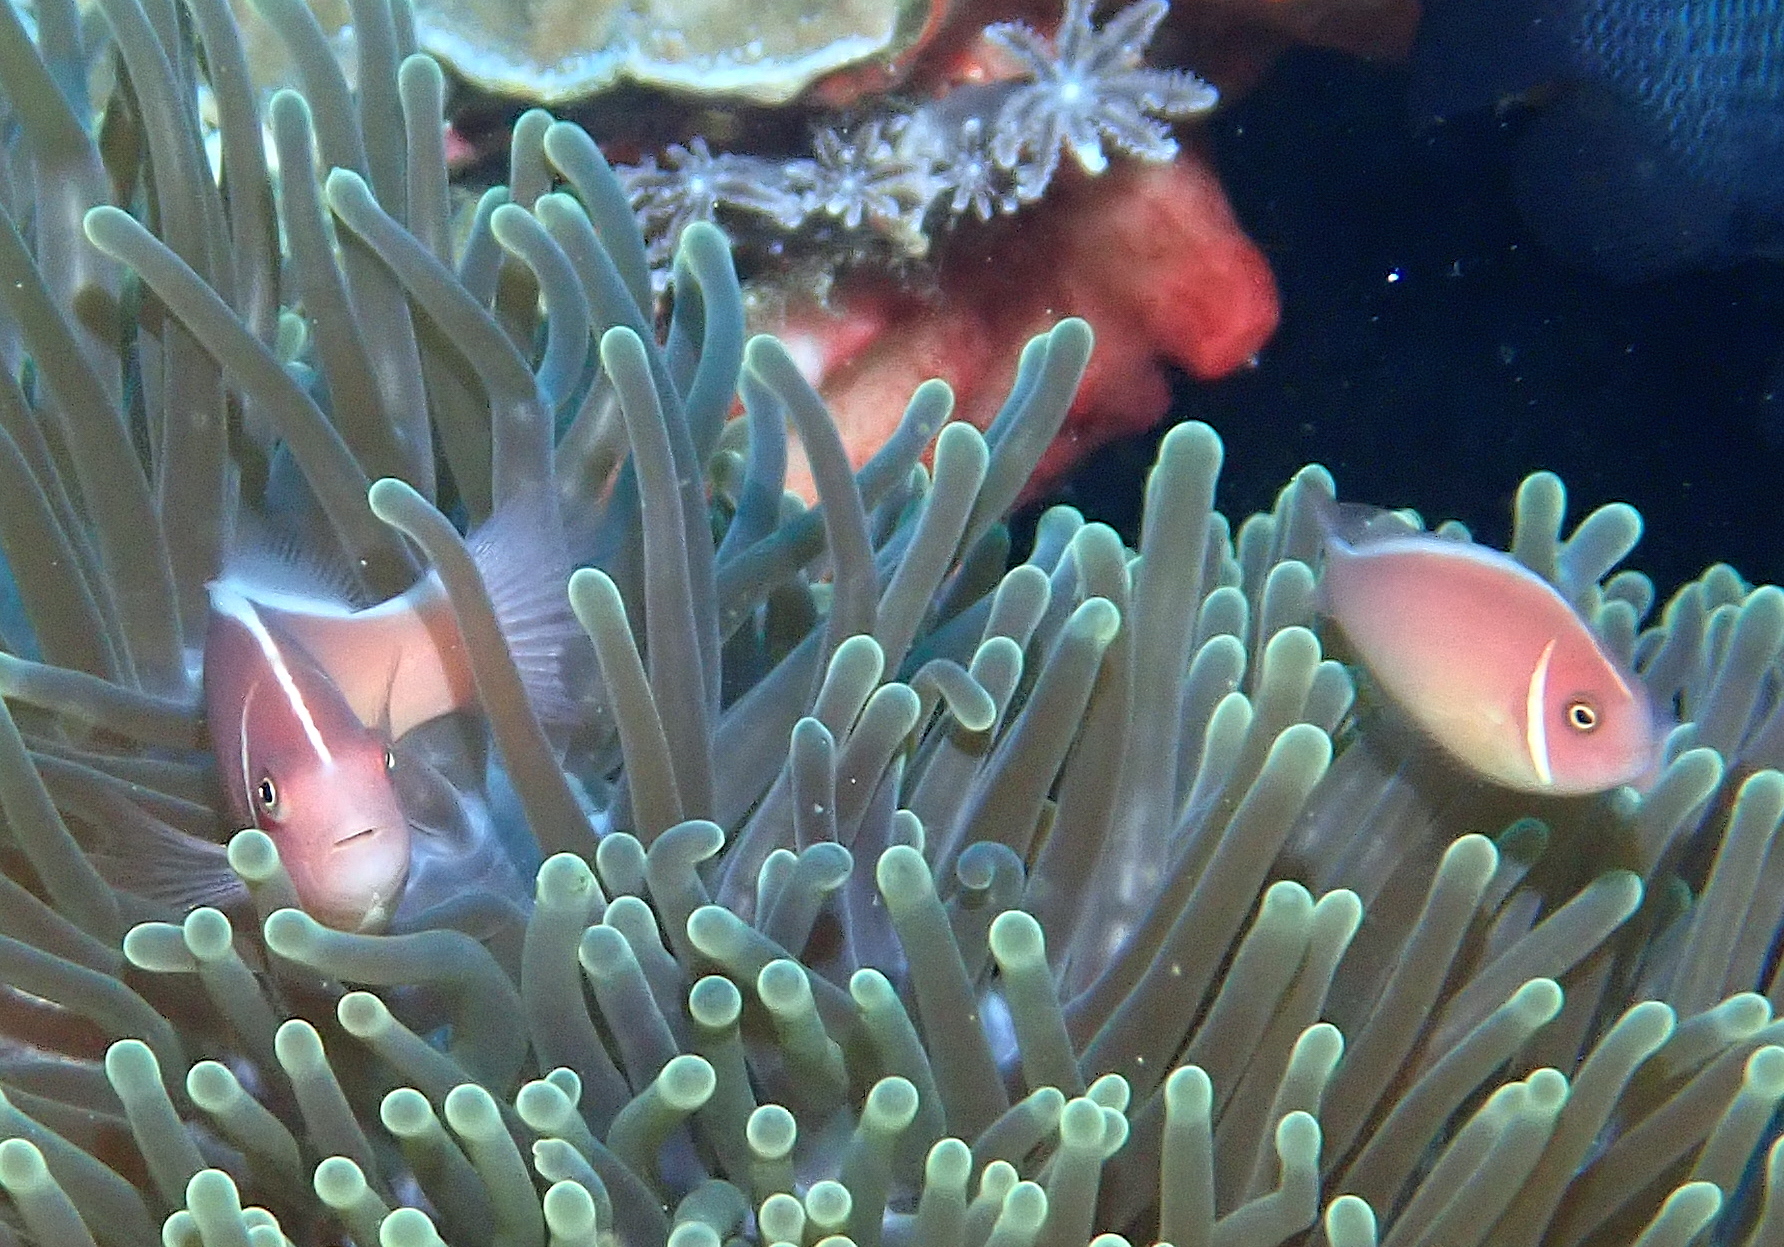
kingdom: Animalia
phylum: Chordata
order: Perciformes
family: Pomacentridae
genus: Amphiprion
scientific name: Amphiprion perideraion
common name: Pink anemonefish
